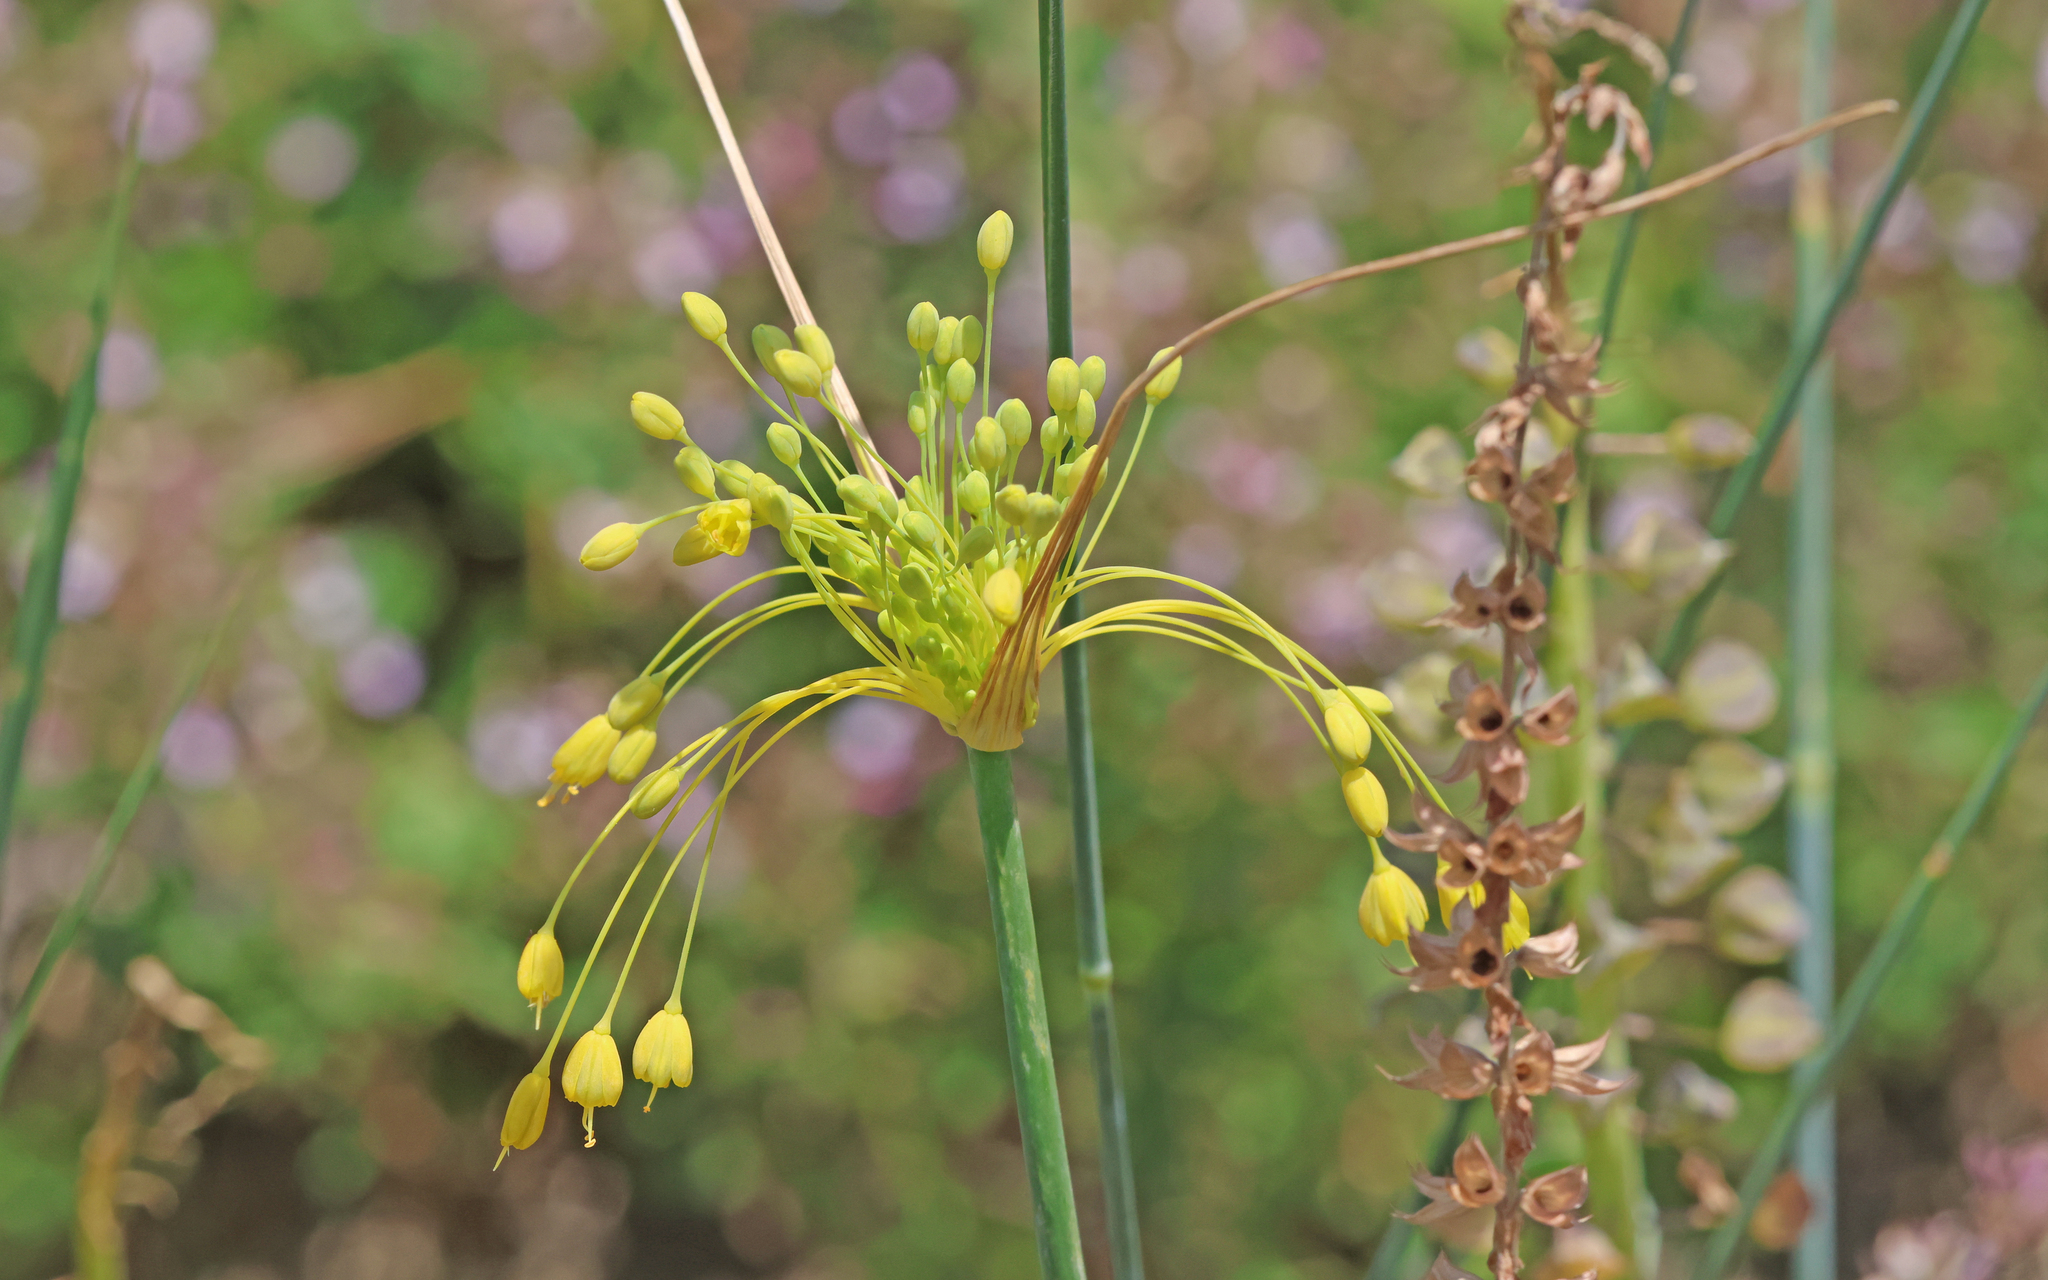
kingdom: Plantae
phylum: Tracheophyta
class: Liliopsida
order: Asparagales
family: Amaryllidaceae
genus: Allium
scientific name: Allium flavum
